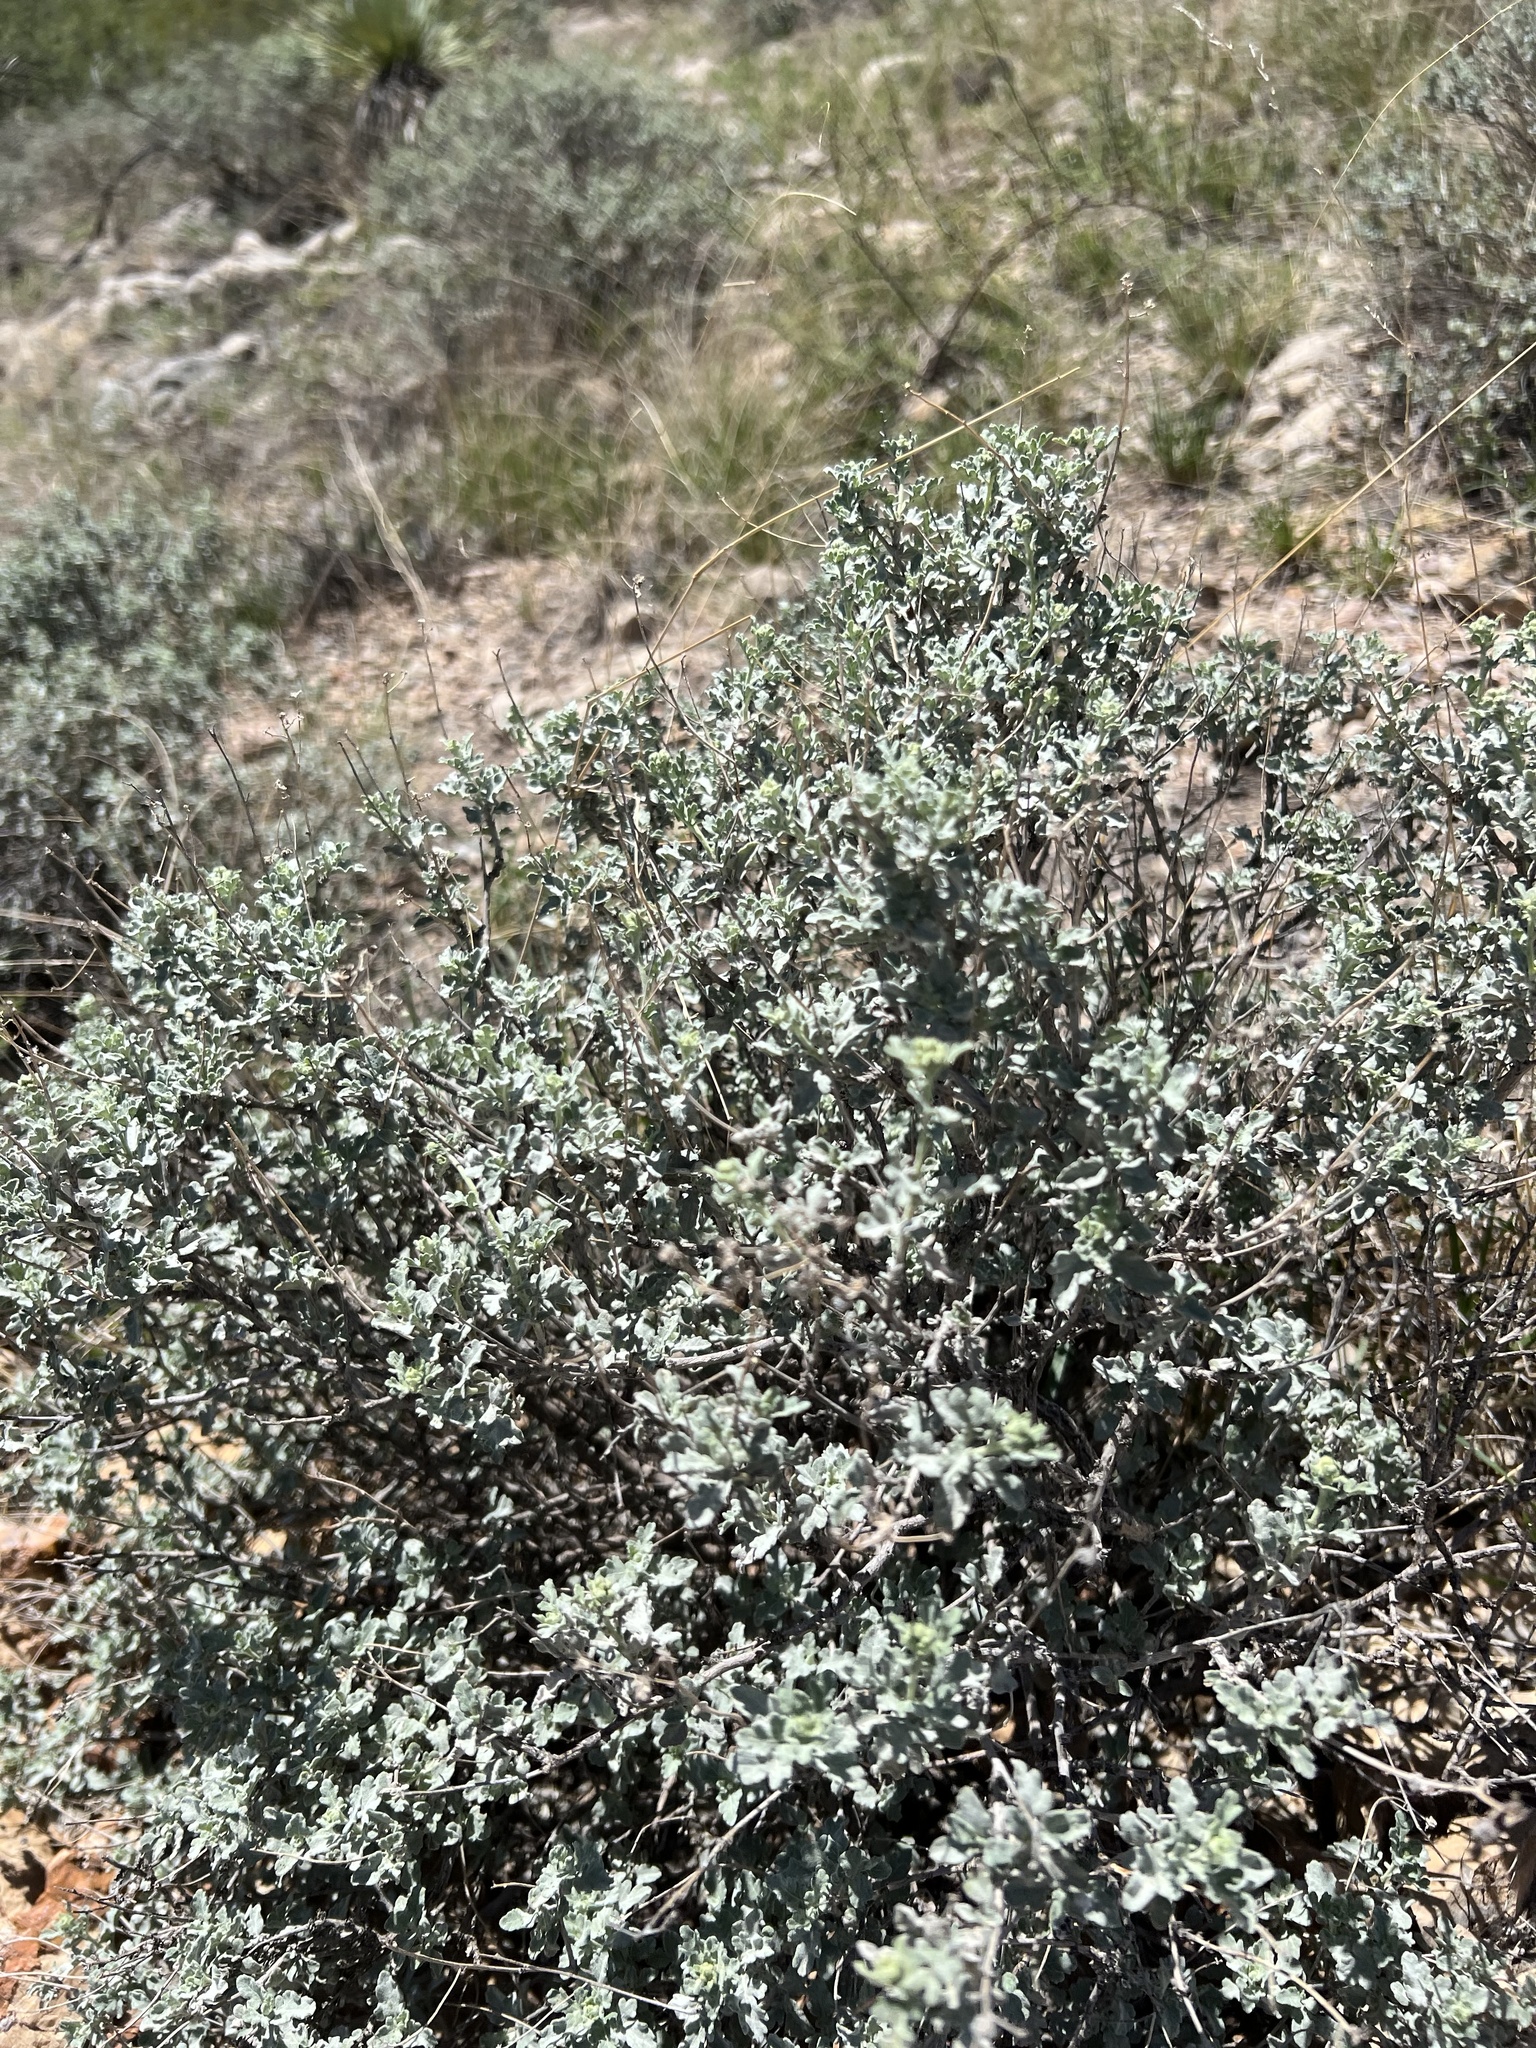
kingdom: Plantae
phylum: Tracheophyta
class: Magnoliopsida
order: Asterales
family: Asteraceae
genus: Parthenium
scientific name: Parthenium incanum
